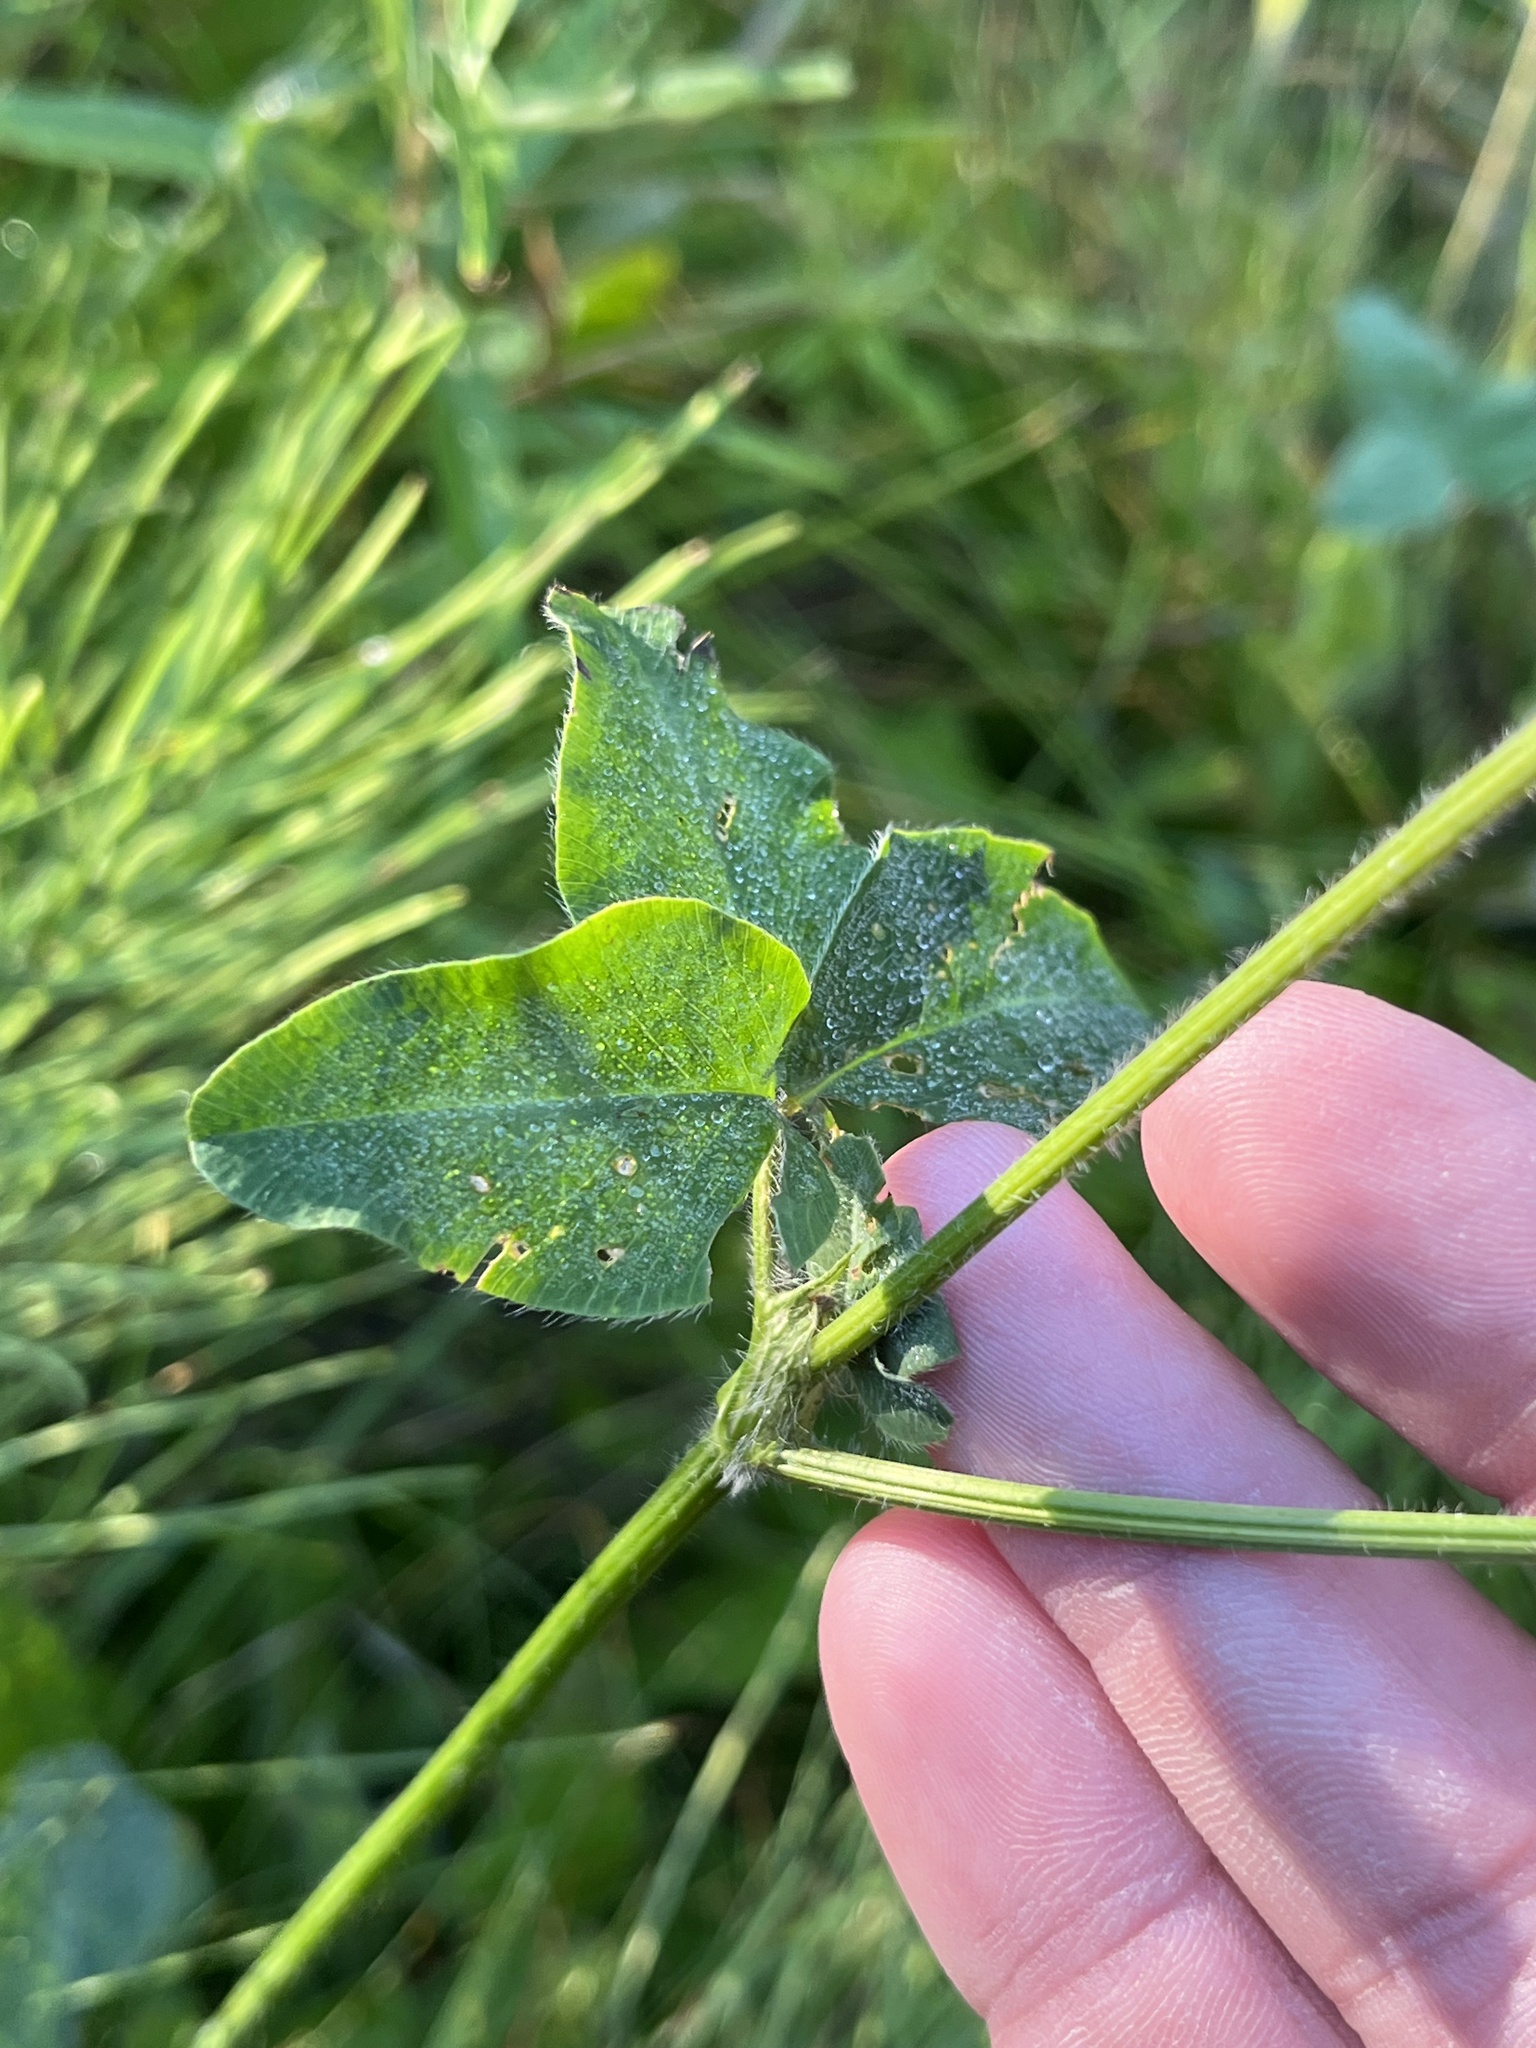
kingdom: Plantae
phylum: Tracheophyta
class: Magnoliopsida
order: Fabales
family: Fabaceae
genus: Trifolium
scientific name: Trifolium pratense
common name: Red clover
